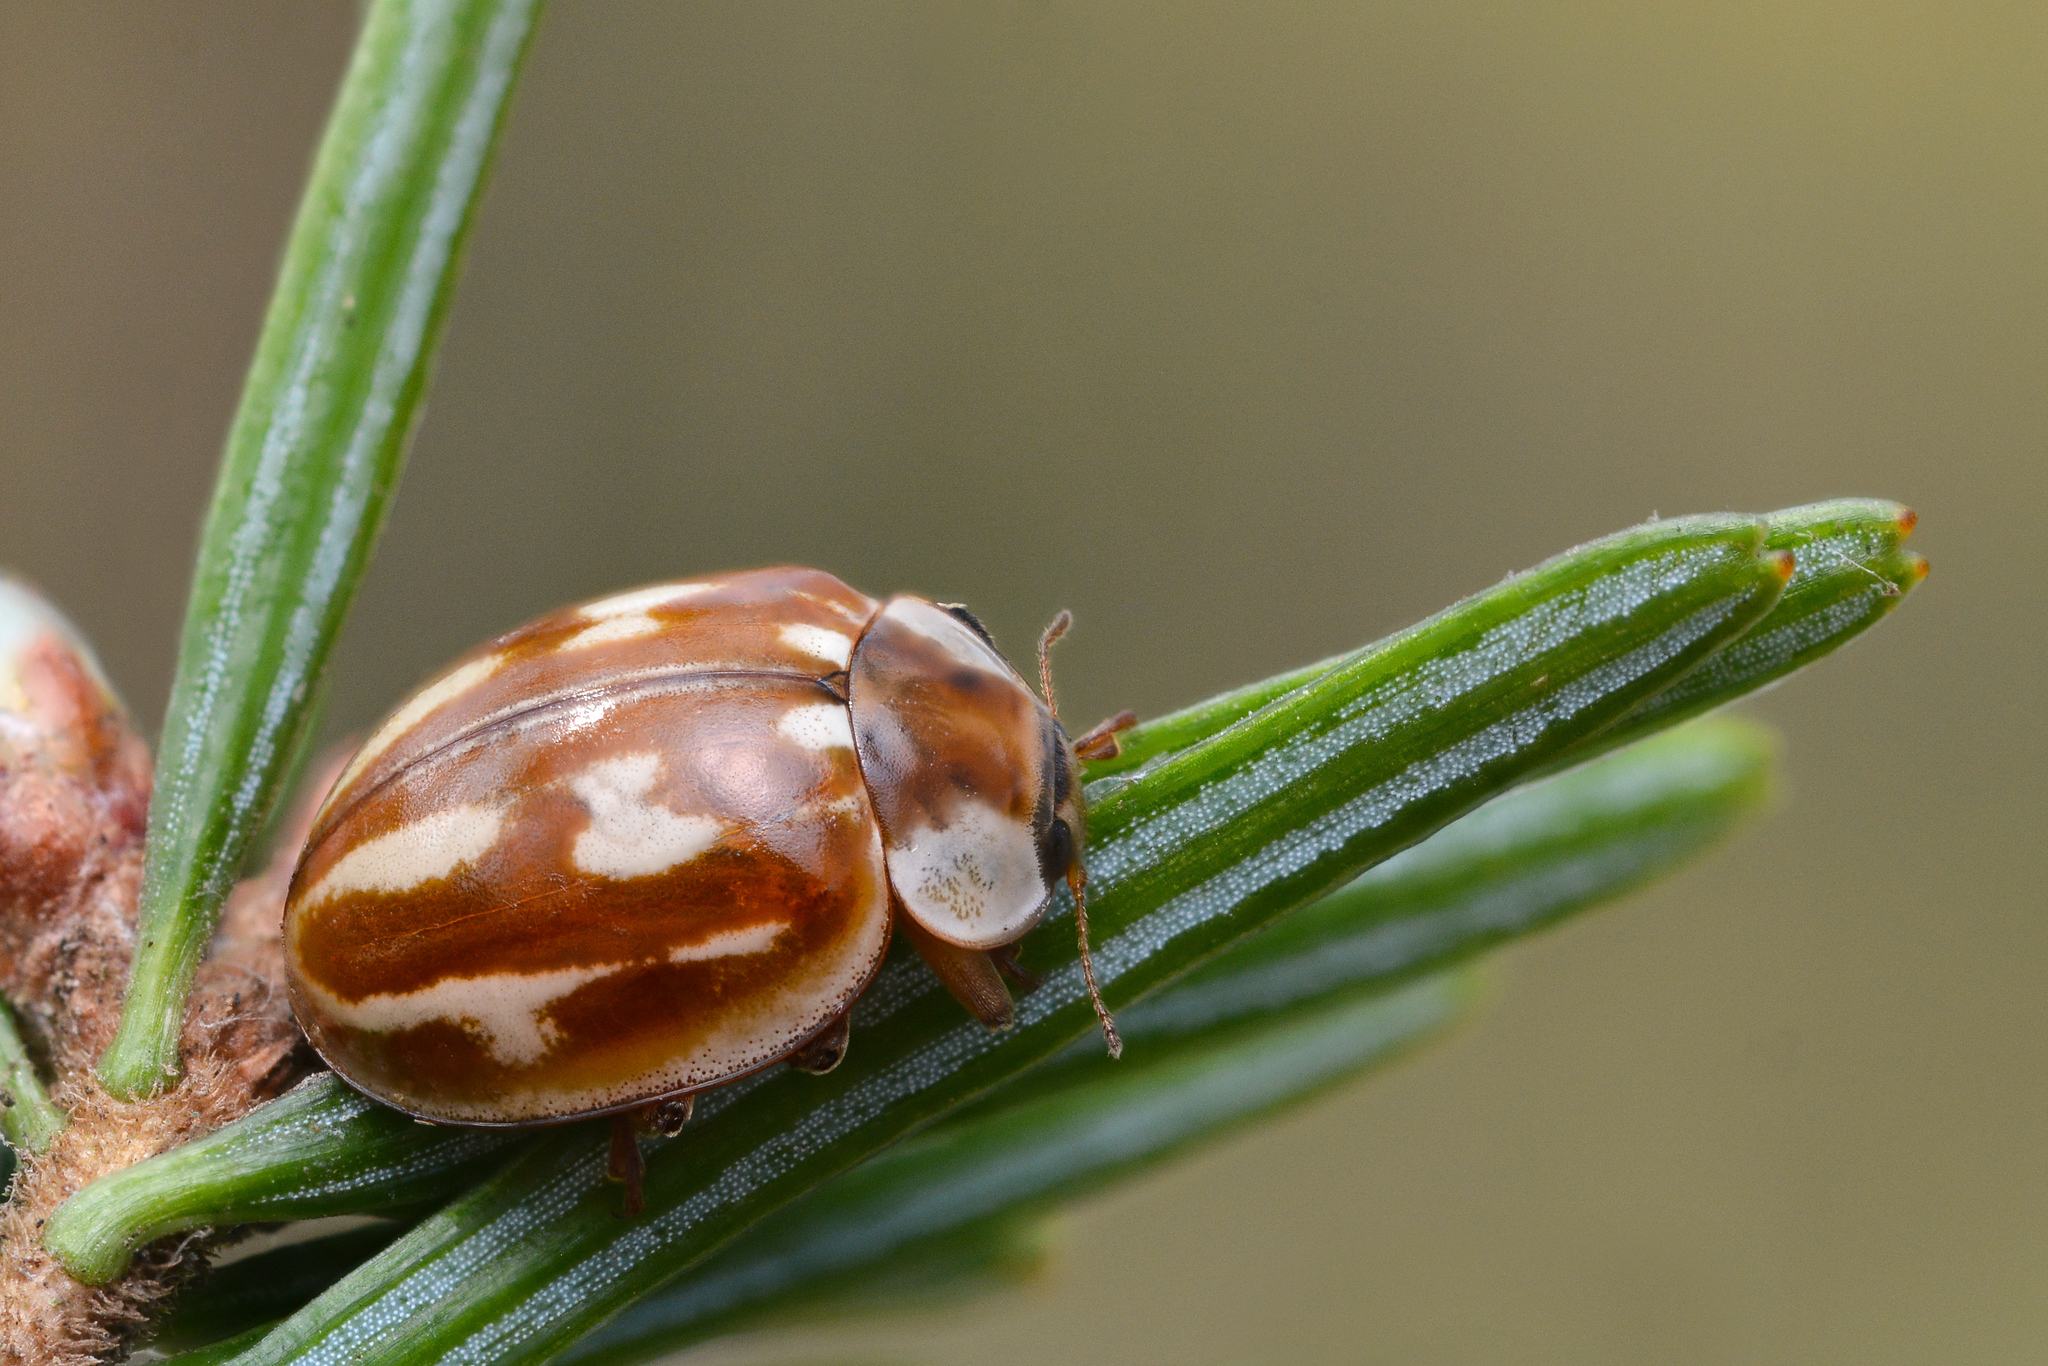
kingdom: Animalia
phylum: Arthropoda
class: Insecta
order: Coleoptera
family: Coccinellidae
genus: Myzia
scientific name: Myzia oblongoguttata
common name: Striped ladybird
